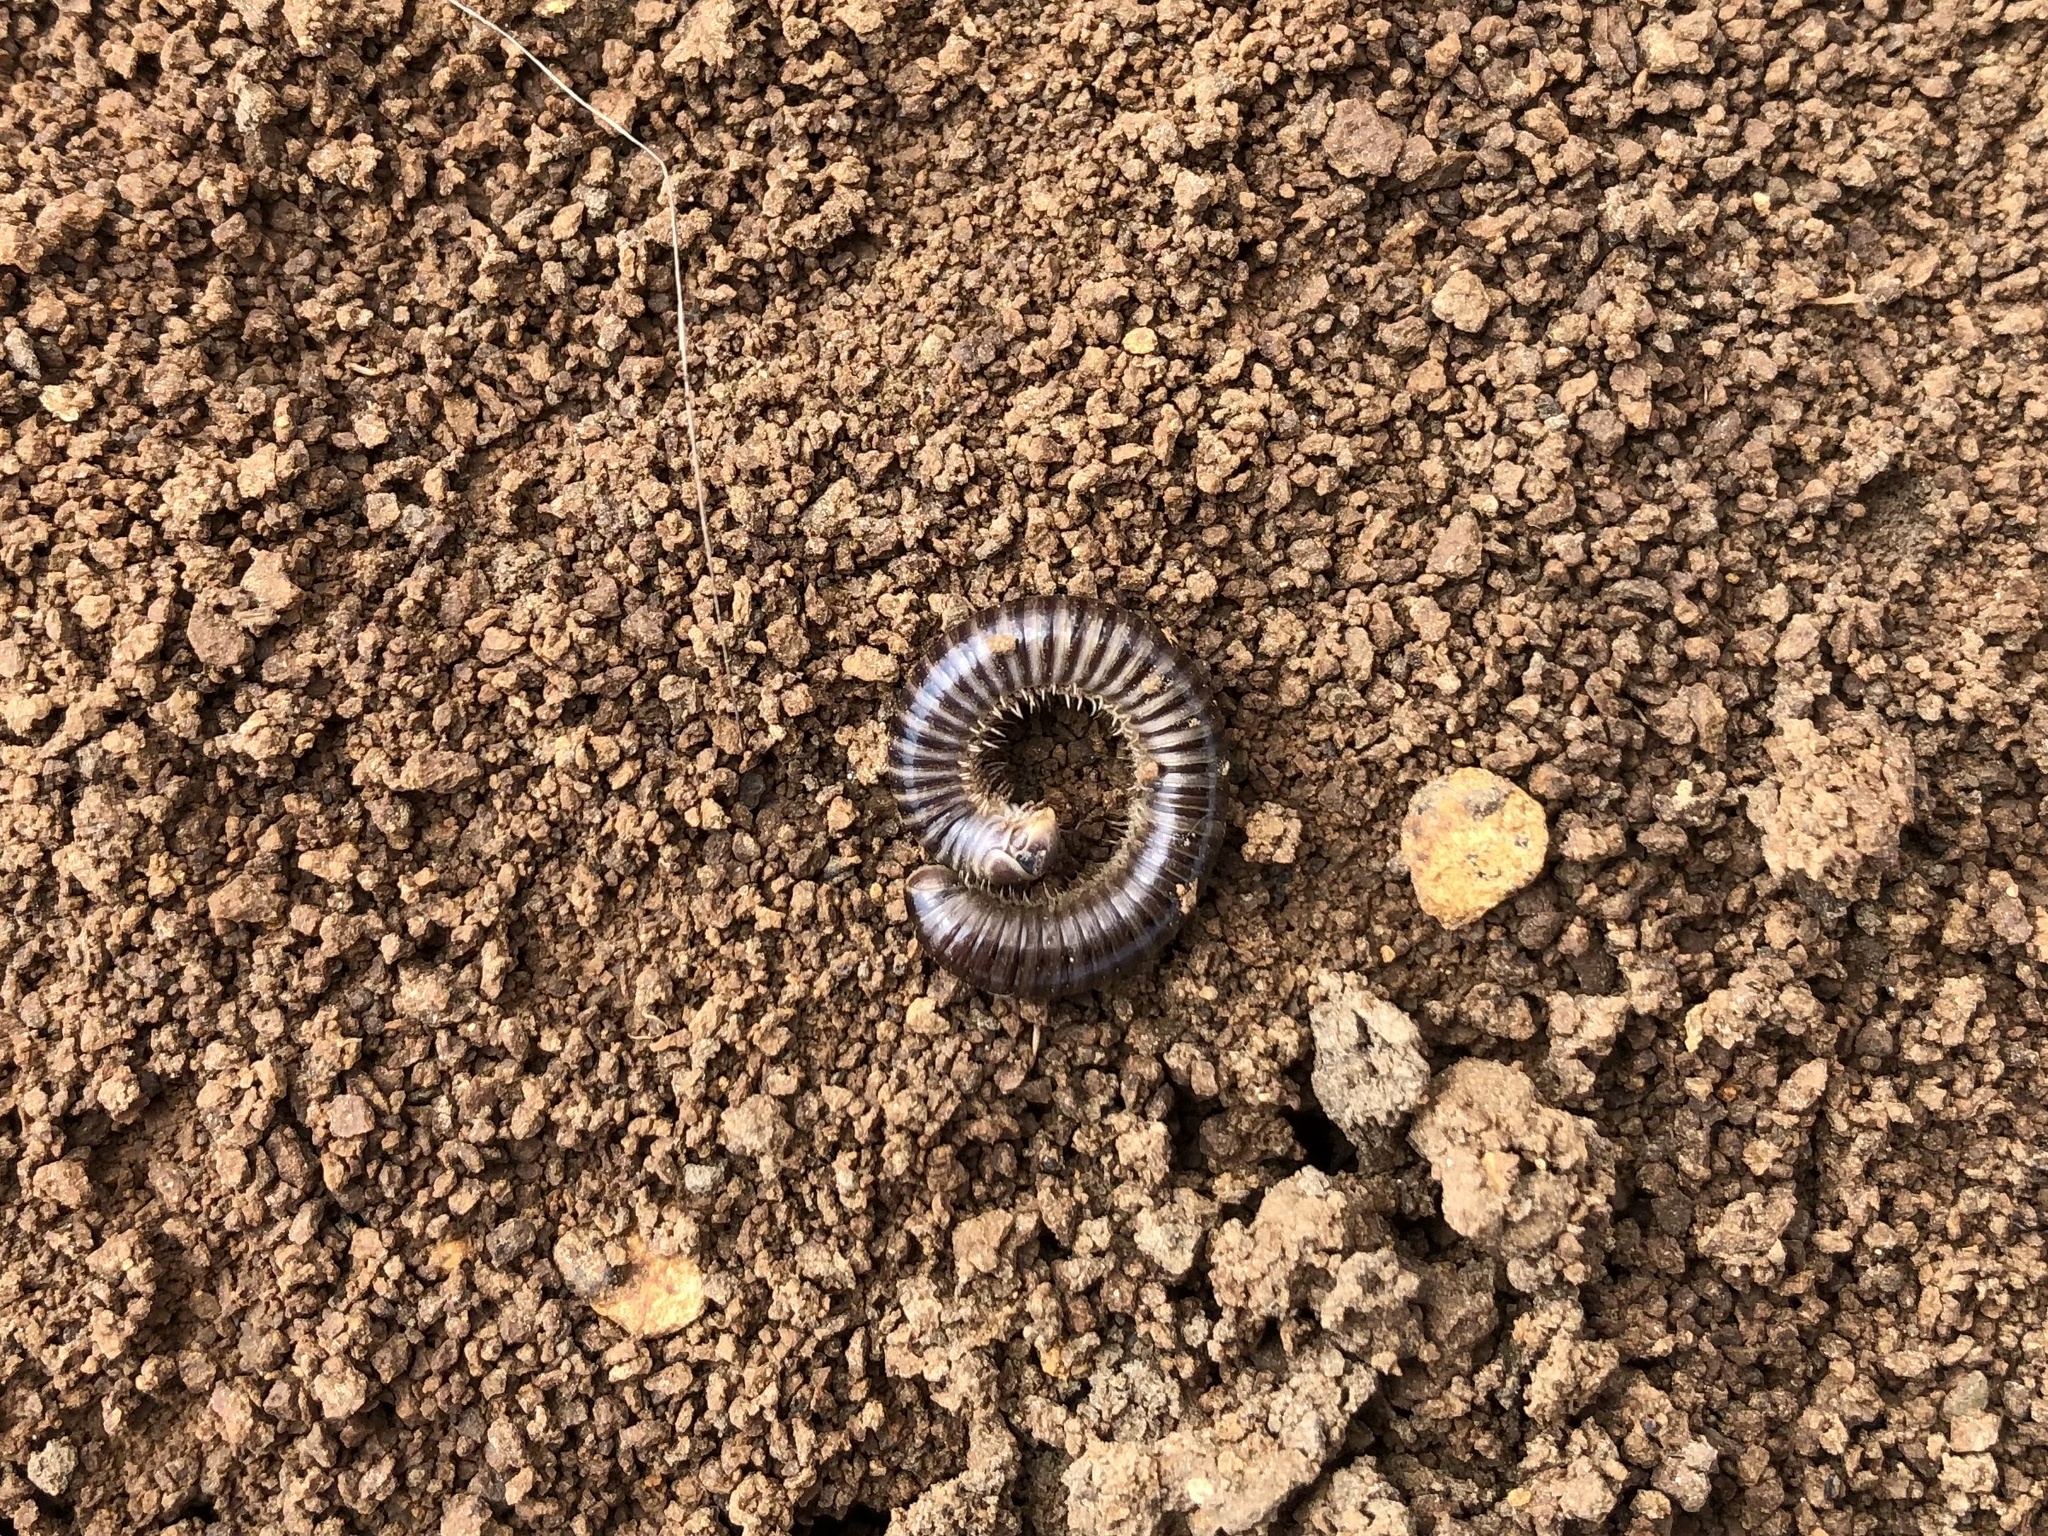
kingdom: Animalia
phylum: Arthropoda
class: Diplopoda
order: Julida
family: Julidae
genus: Cylindroiulus
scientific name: Cylindroiulus caeruleocinctus
